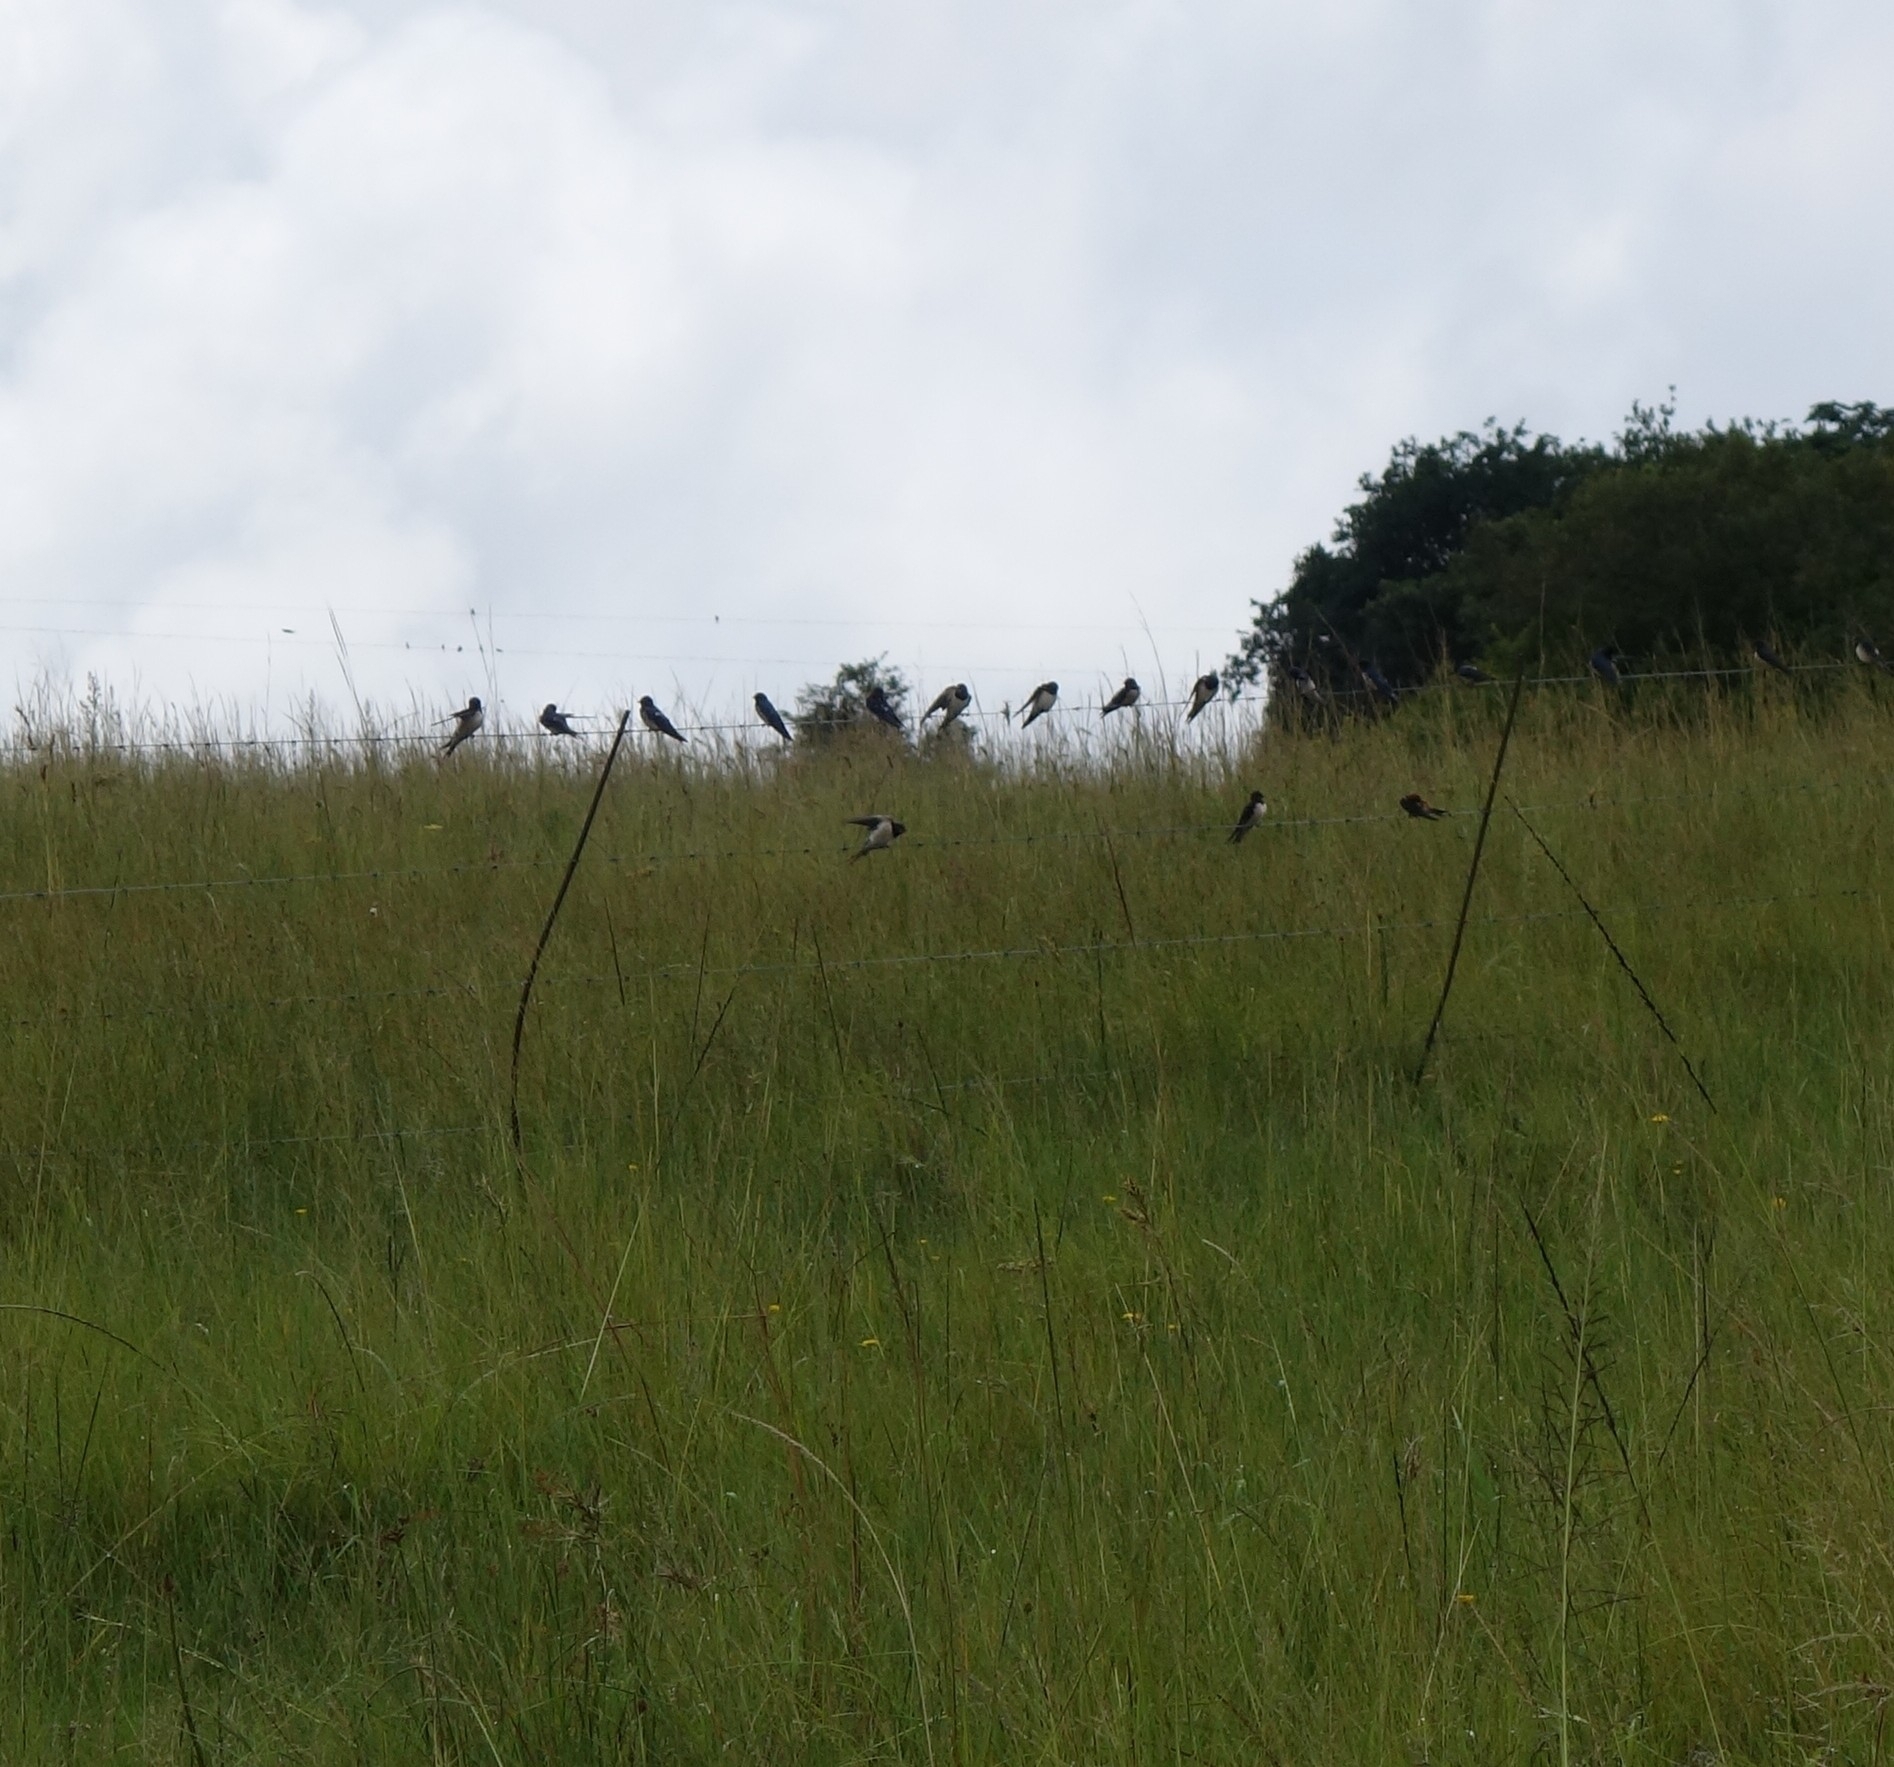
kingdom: Animalia
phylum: Chordata
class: Aves
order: Passeriformes
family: Hirundinidae
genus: Hirundo
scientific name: Hirundo rustica
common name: Barn swallow
